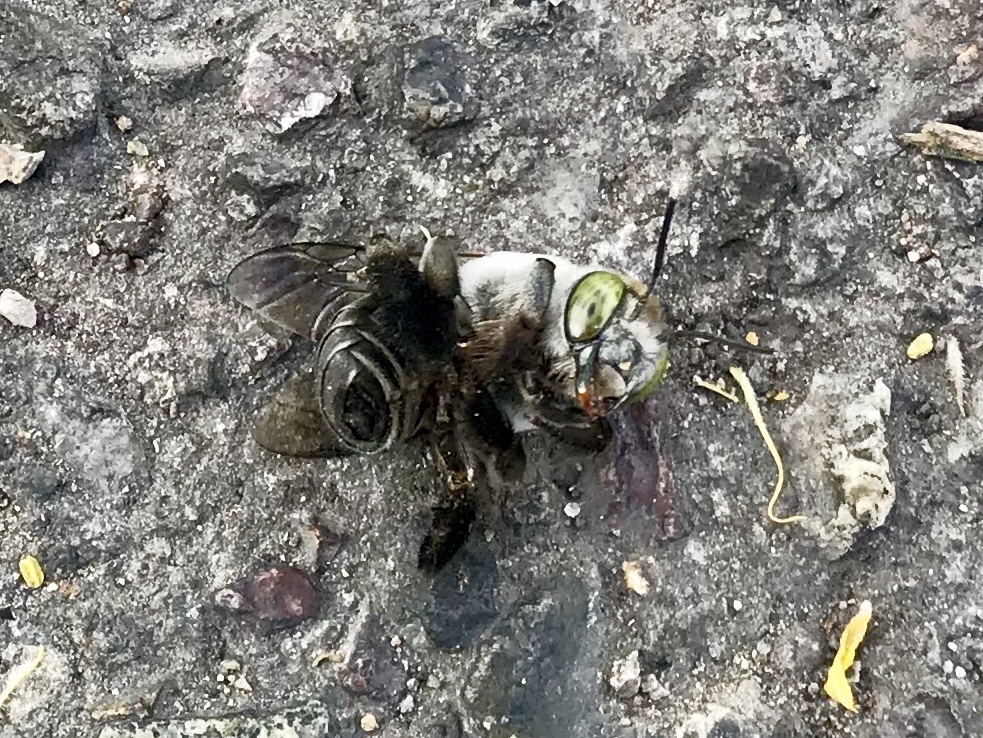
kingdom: Animalia
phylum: Arthropoda
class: Insecta
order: Hymenoptera
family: Apidae
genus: Centris
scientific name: Centris pallida
